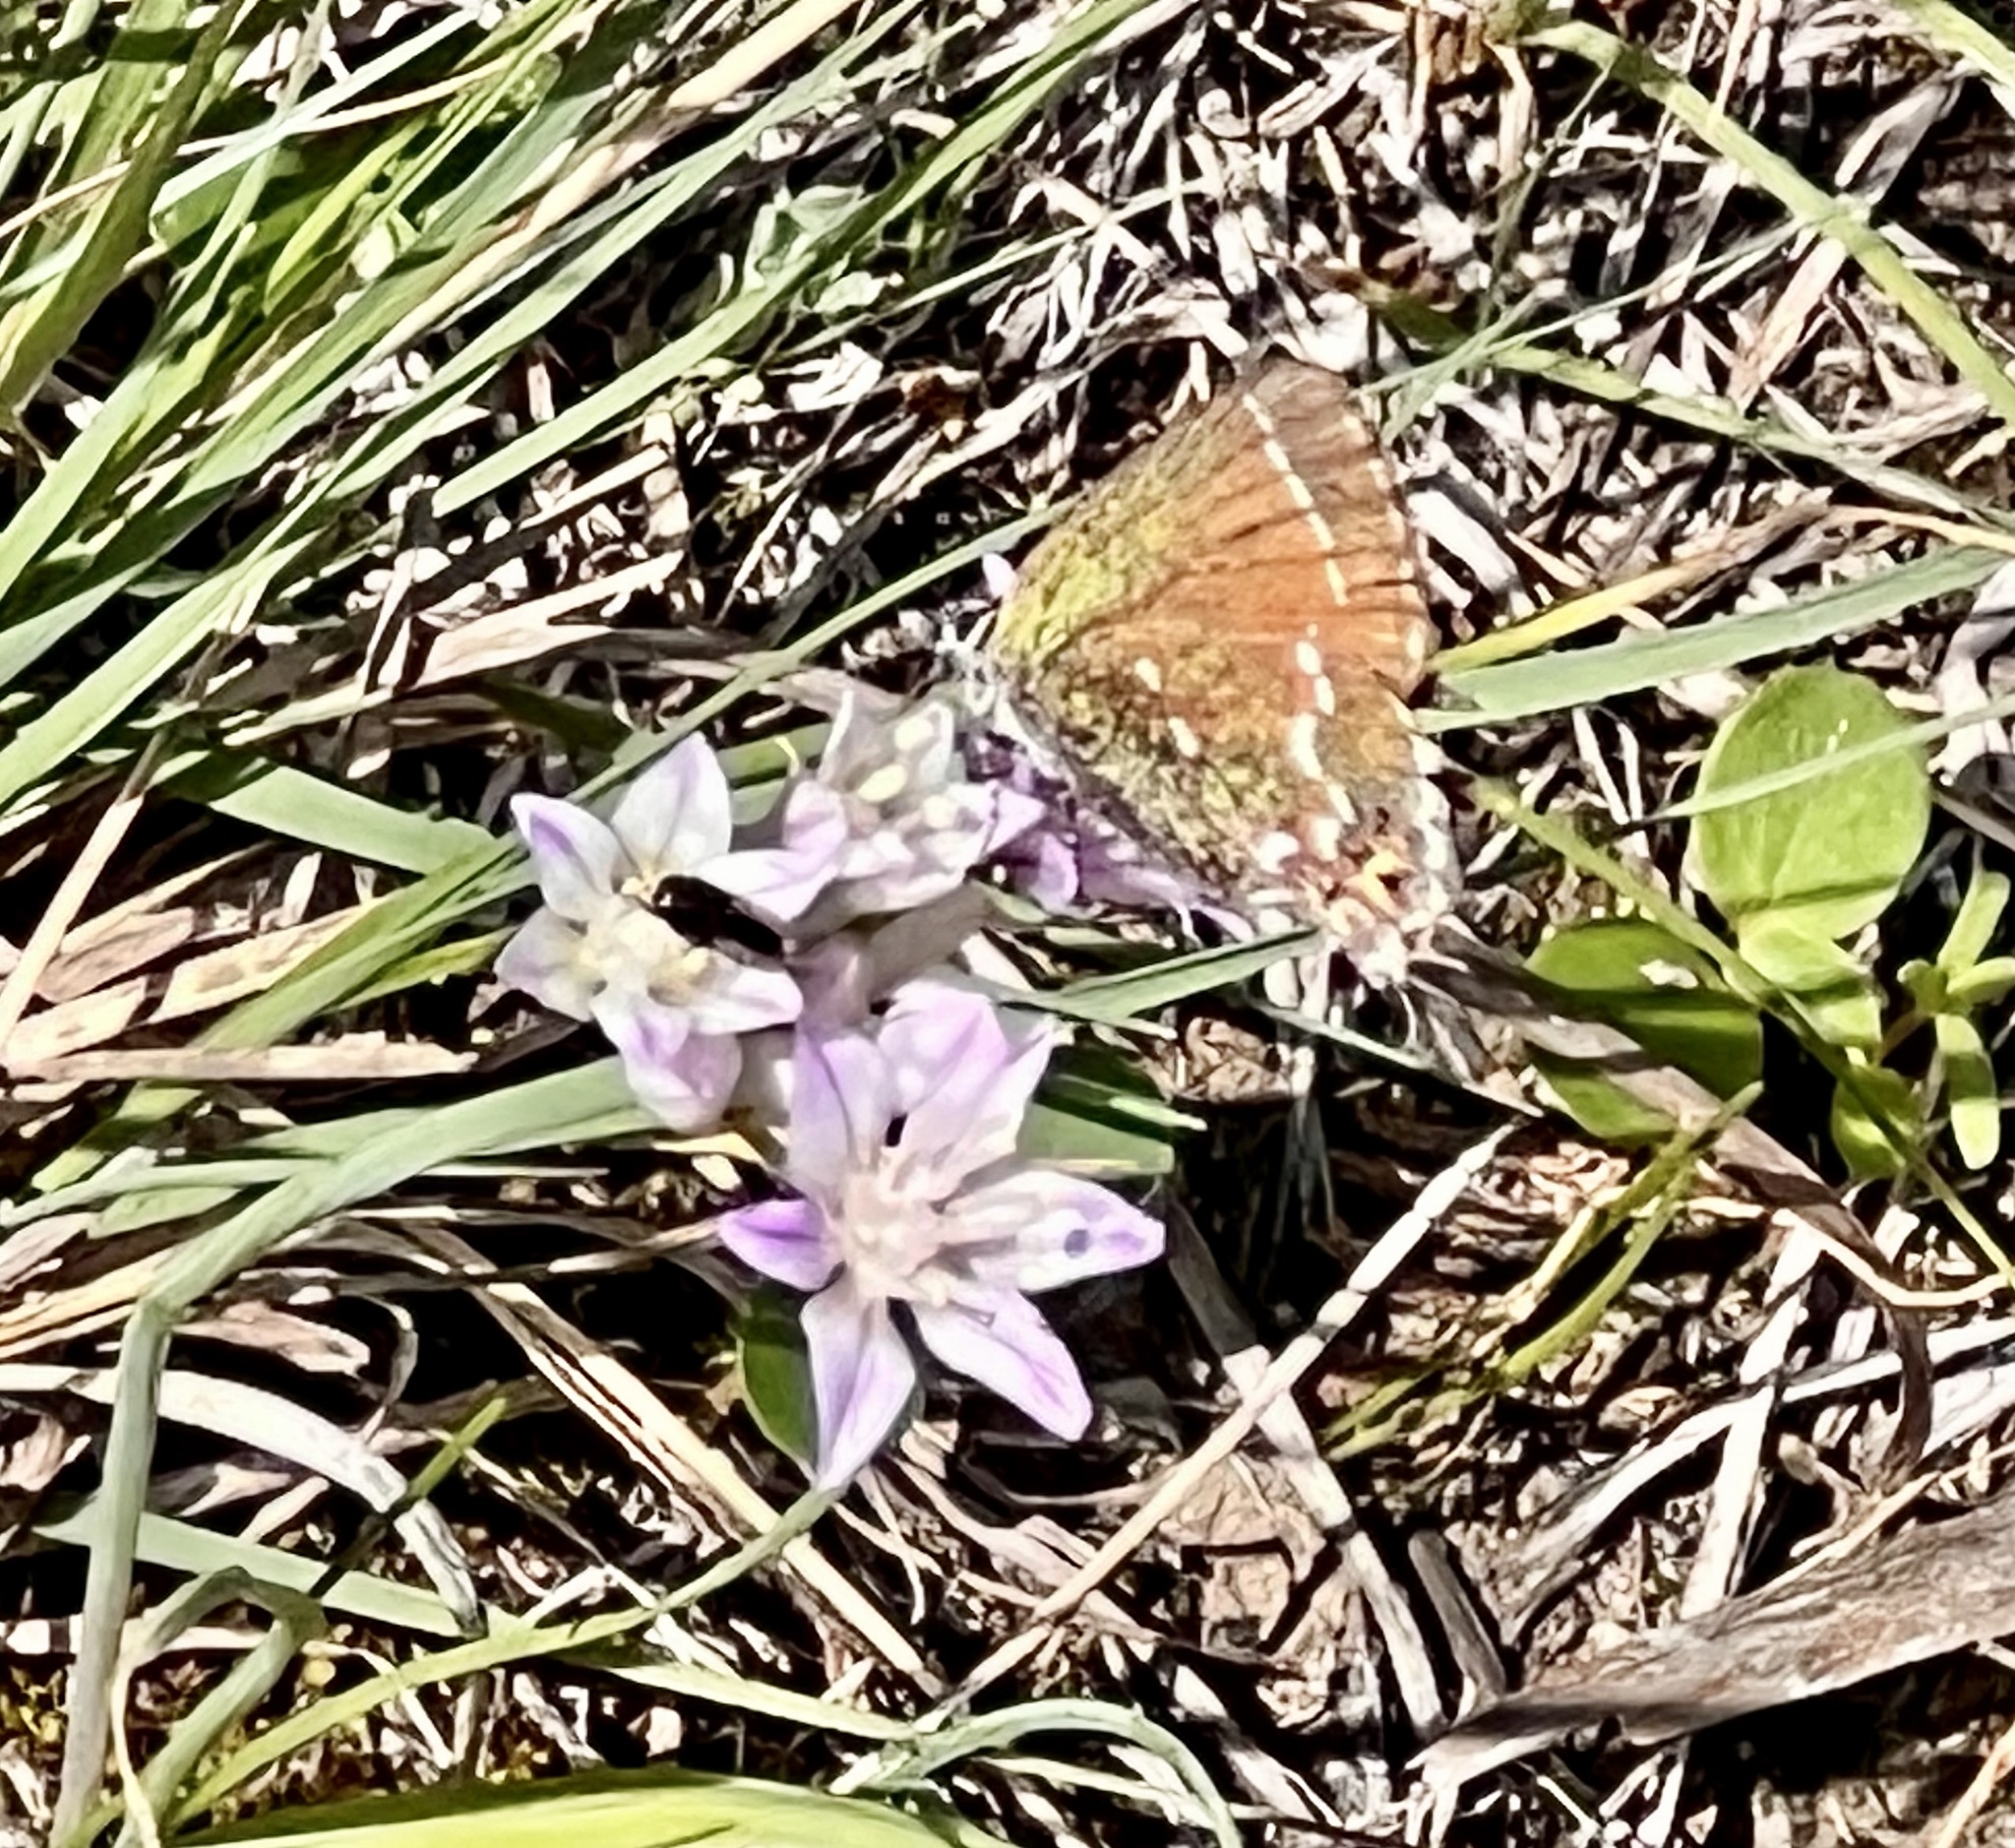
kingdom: Animalia
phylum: Arthropoda
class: Insecta
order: Lepidoptera
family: Lycaenidae
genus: Mitoura
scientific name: Mitoura gryneus
